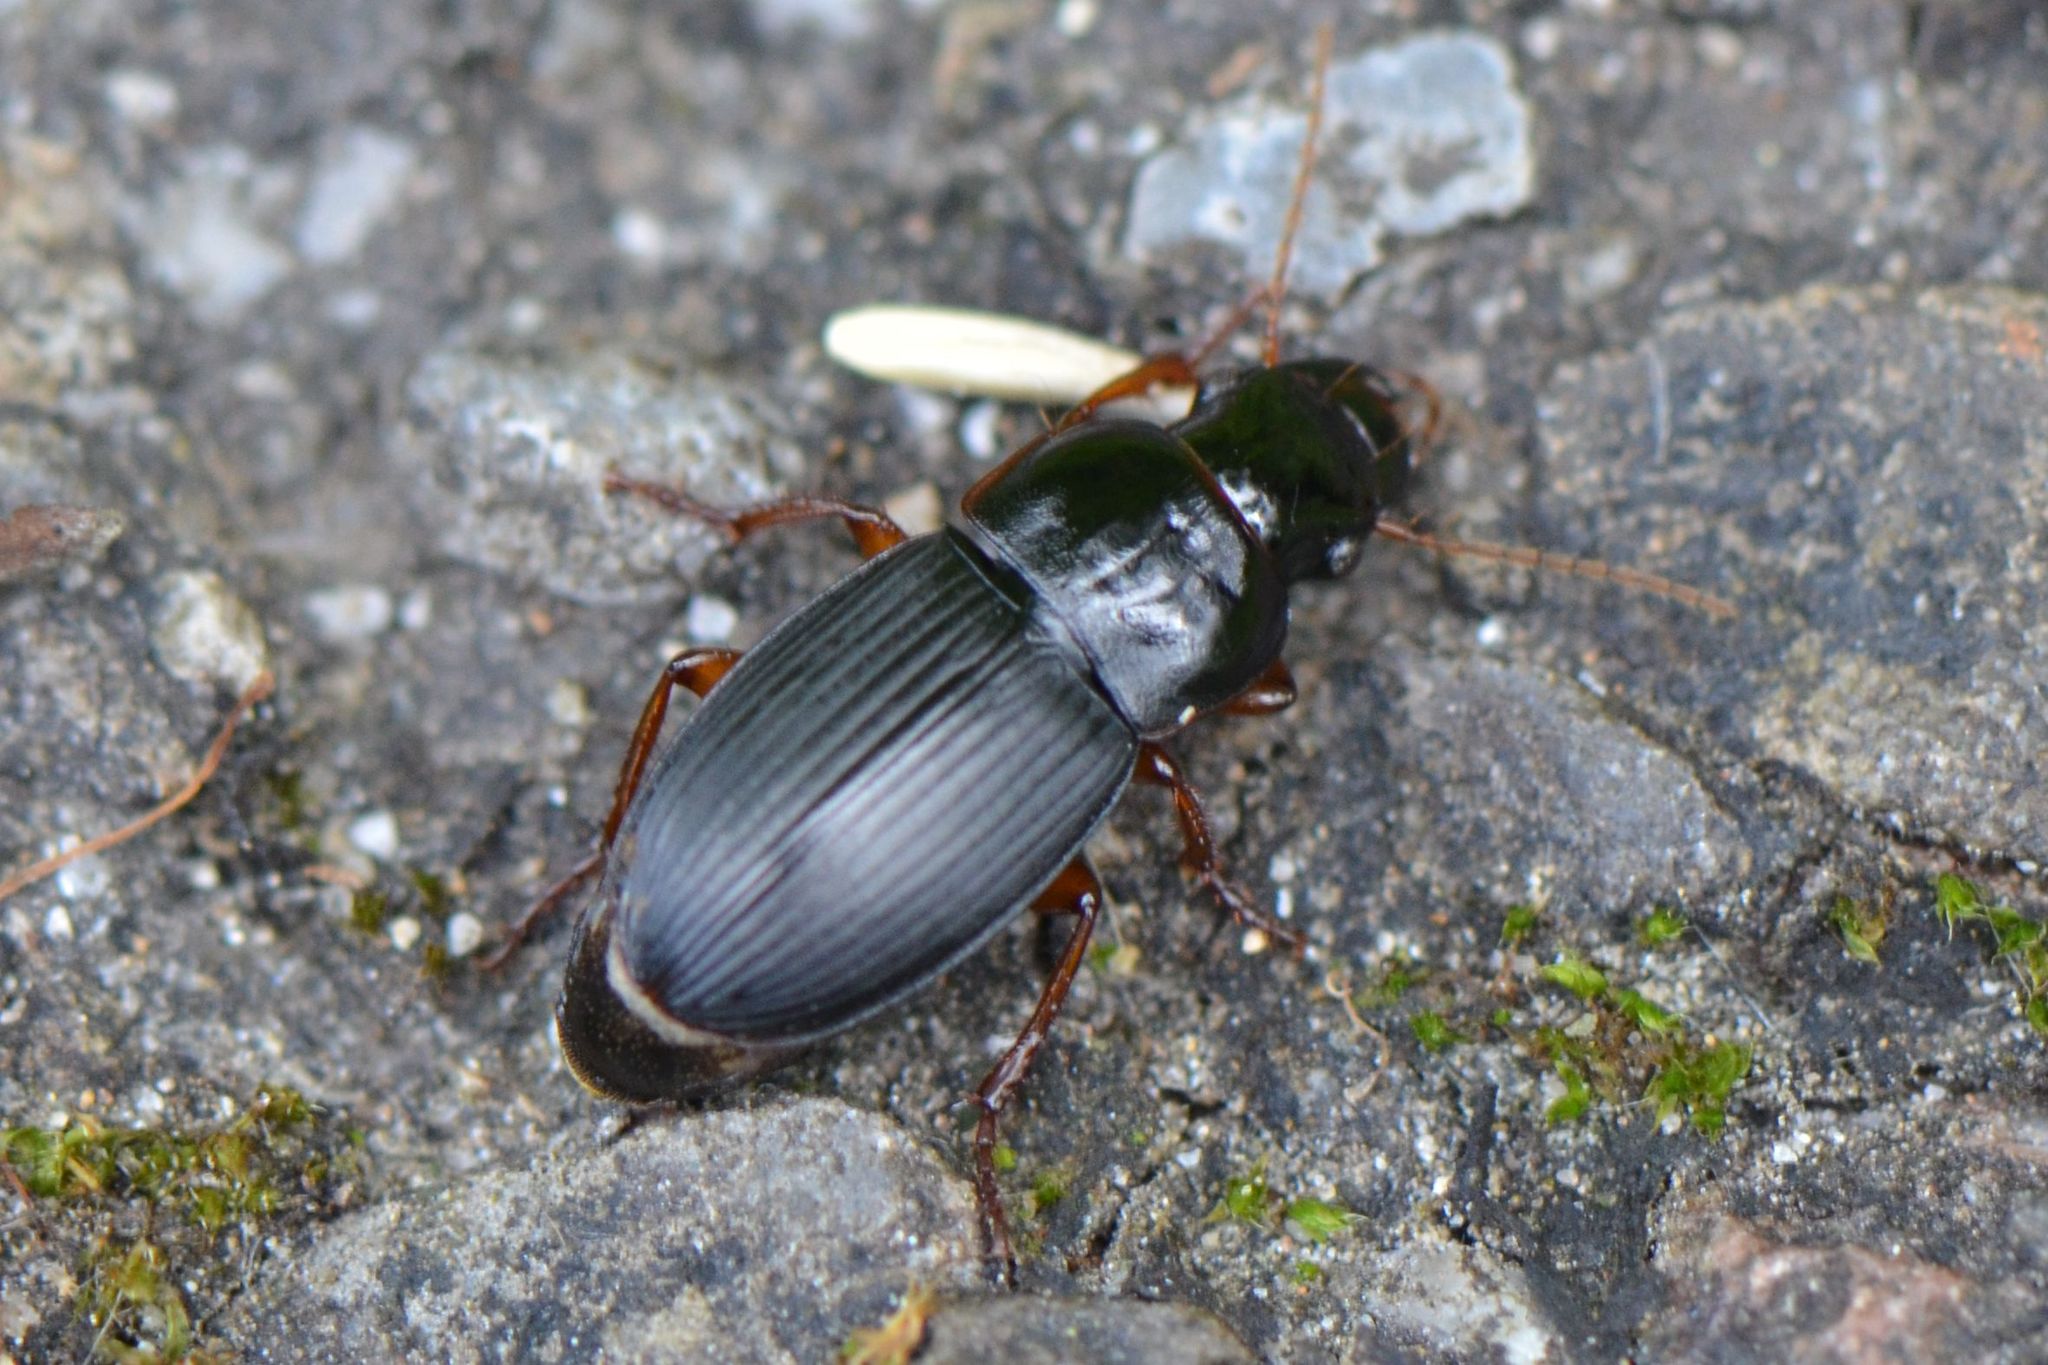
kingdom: Animalia
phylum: Arthropoda
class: Insecta
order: Coleoptera
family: Carabidae
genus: Harpalus
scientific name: Harpalus latus
